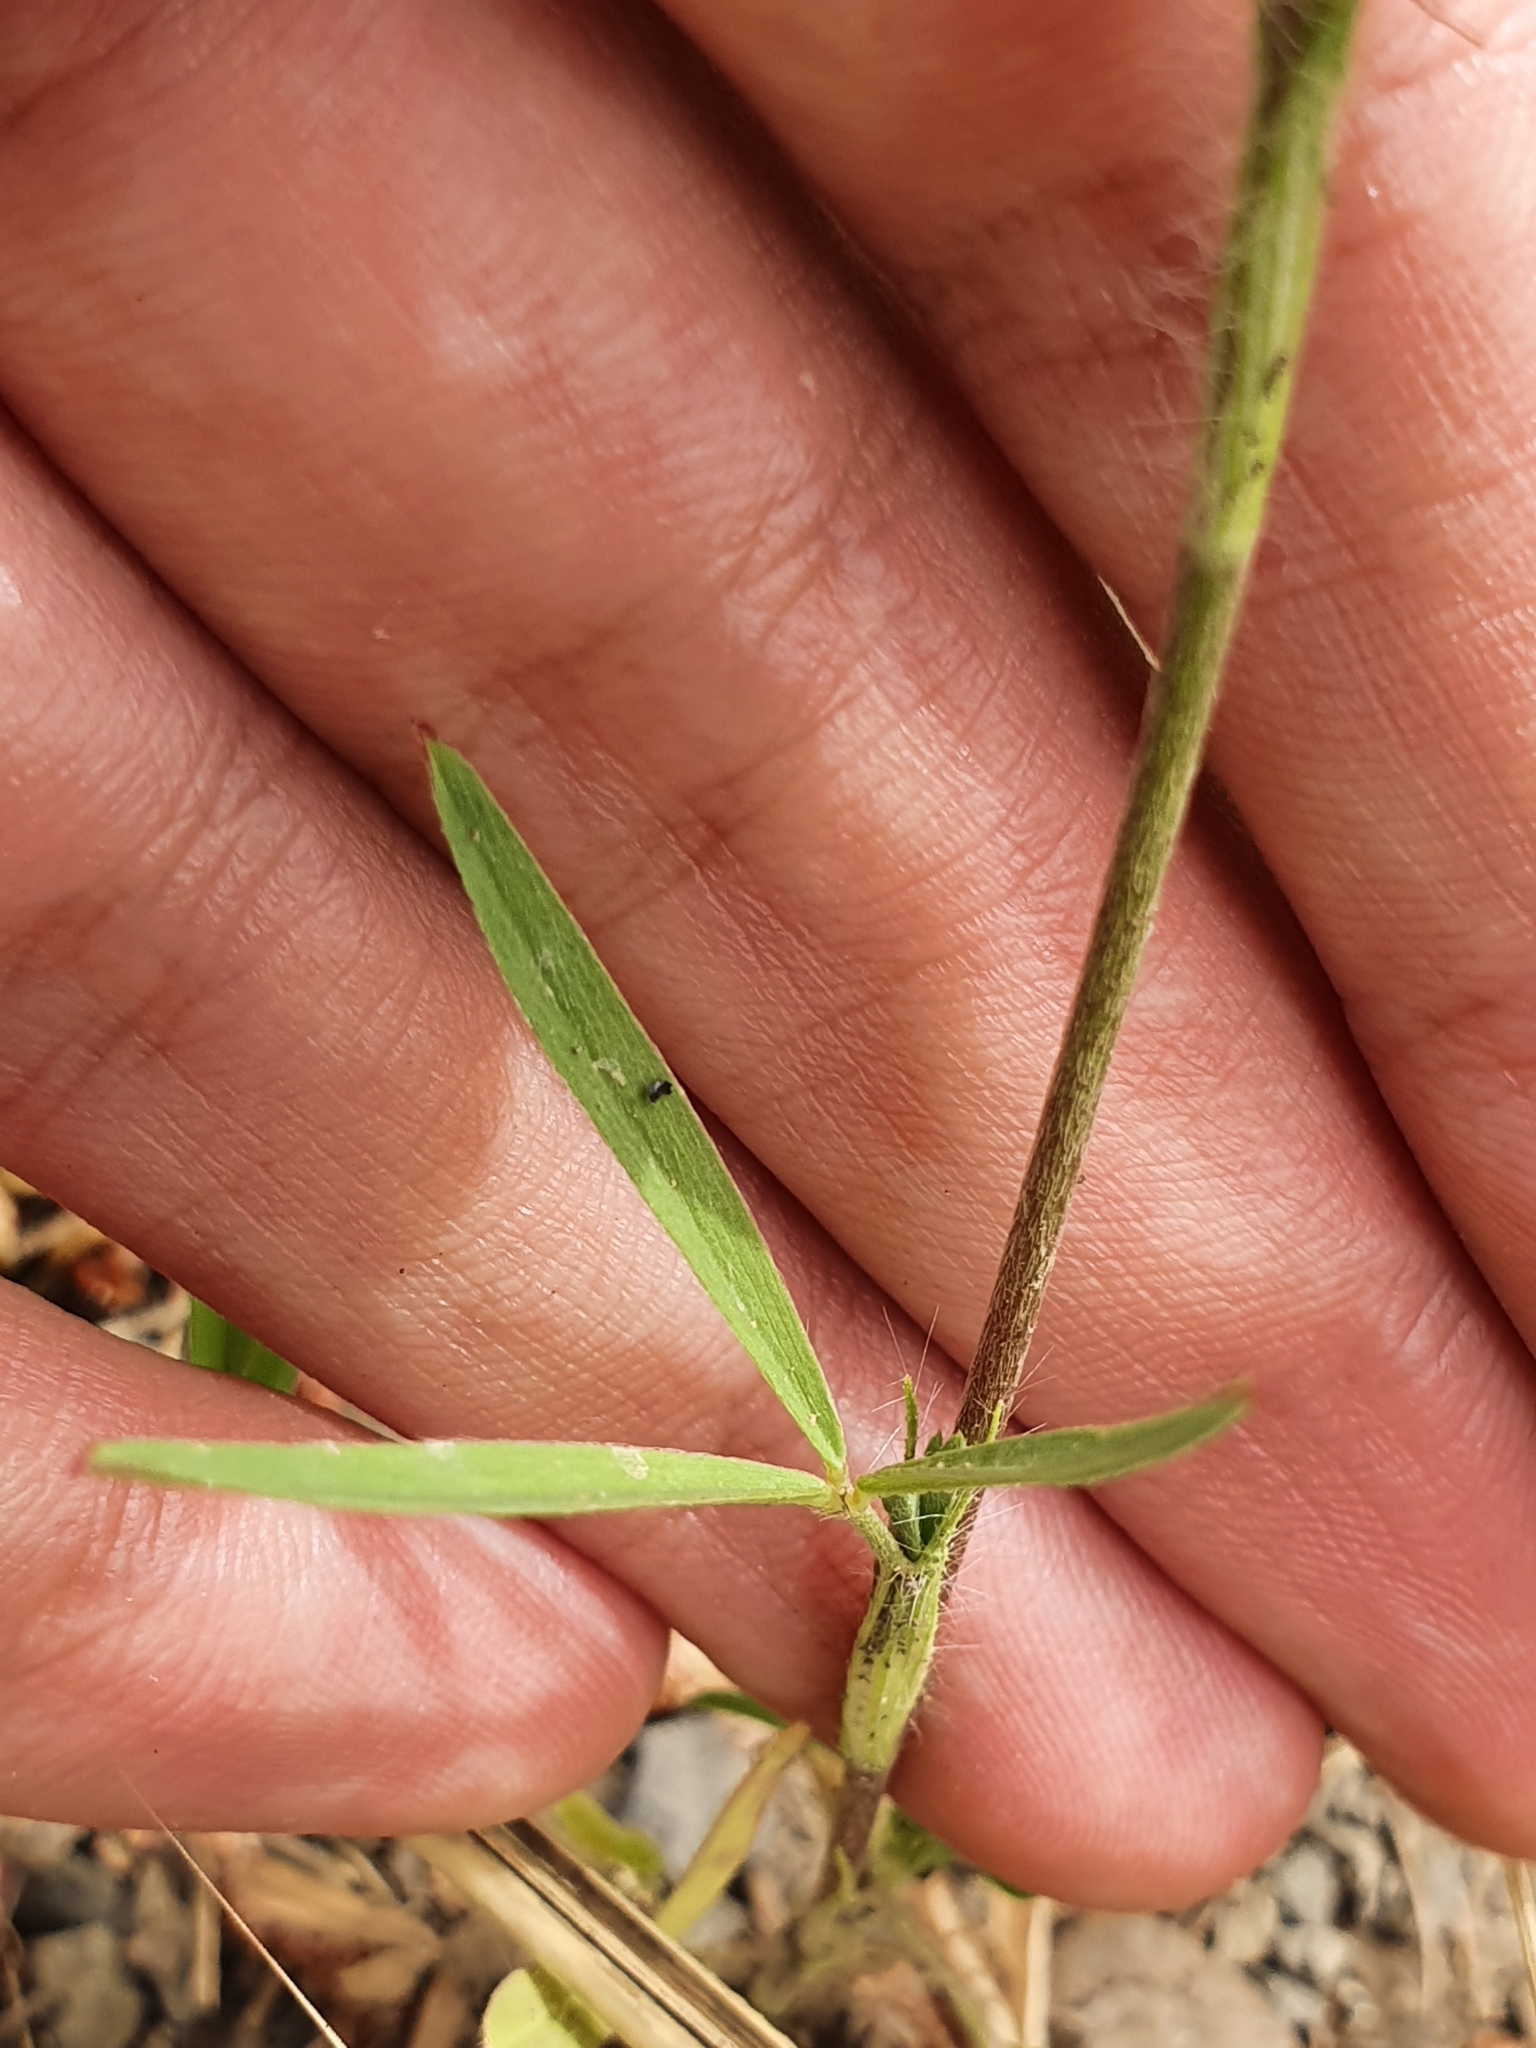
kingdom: Plantae
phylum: Tracheophyta
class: Magnoliopsida
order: Fabales
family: Fabaceae
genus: Trifolium
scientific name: Trifolium angustifolium
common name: Narrow clover
